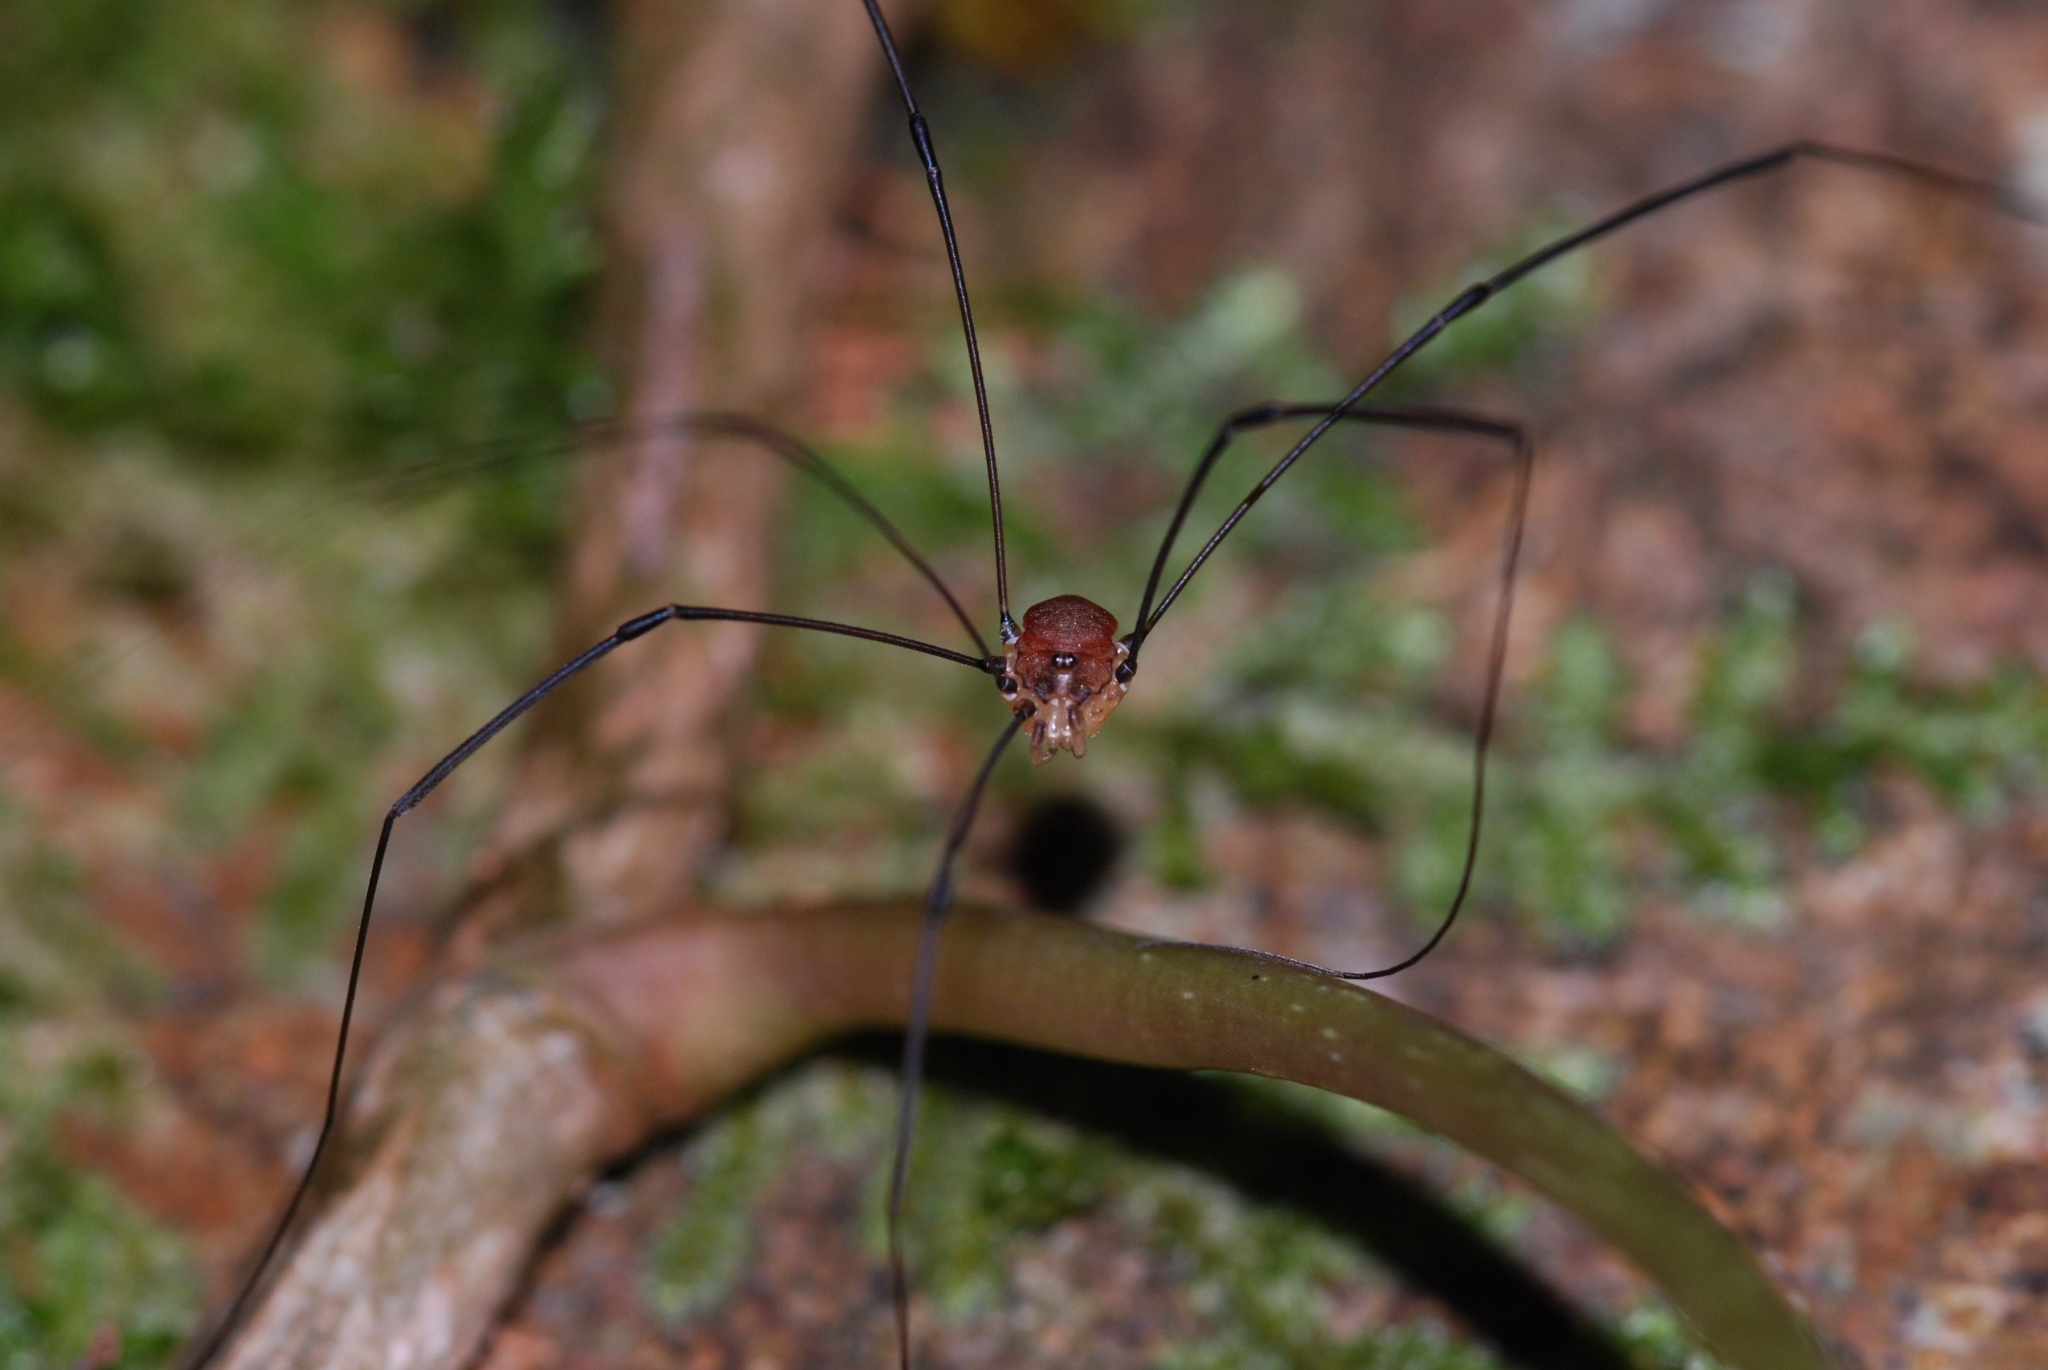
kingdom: Animalia
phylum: Arthropoda
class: Arachnida
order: Opiliones
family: Sclerosomatidae
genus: Leiobunum
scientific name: Leiobunum blackwalli
